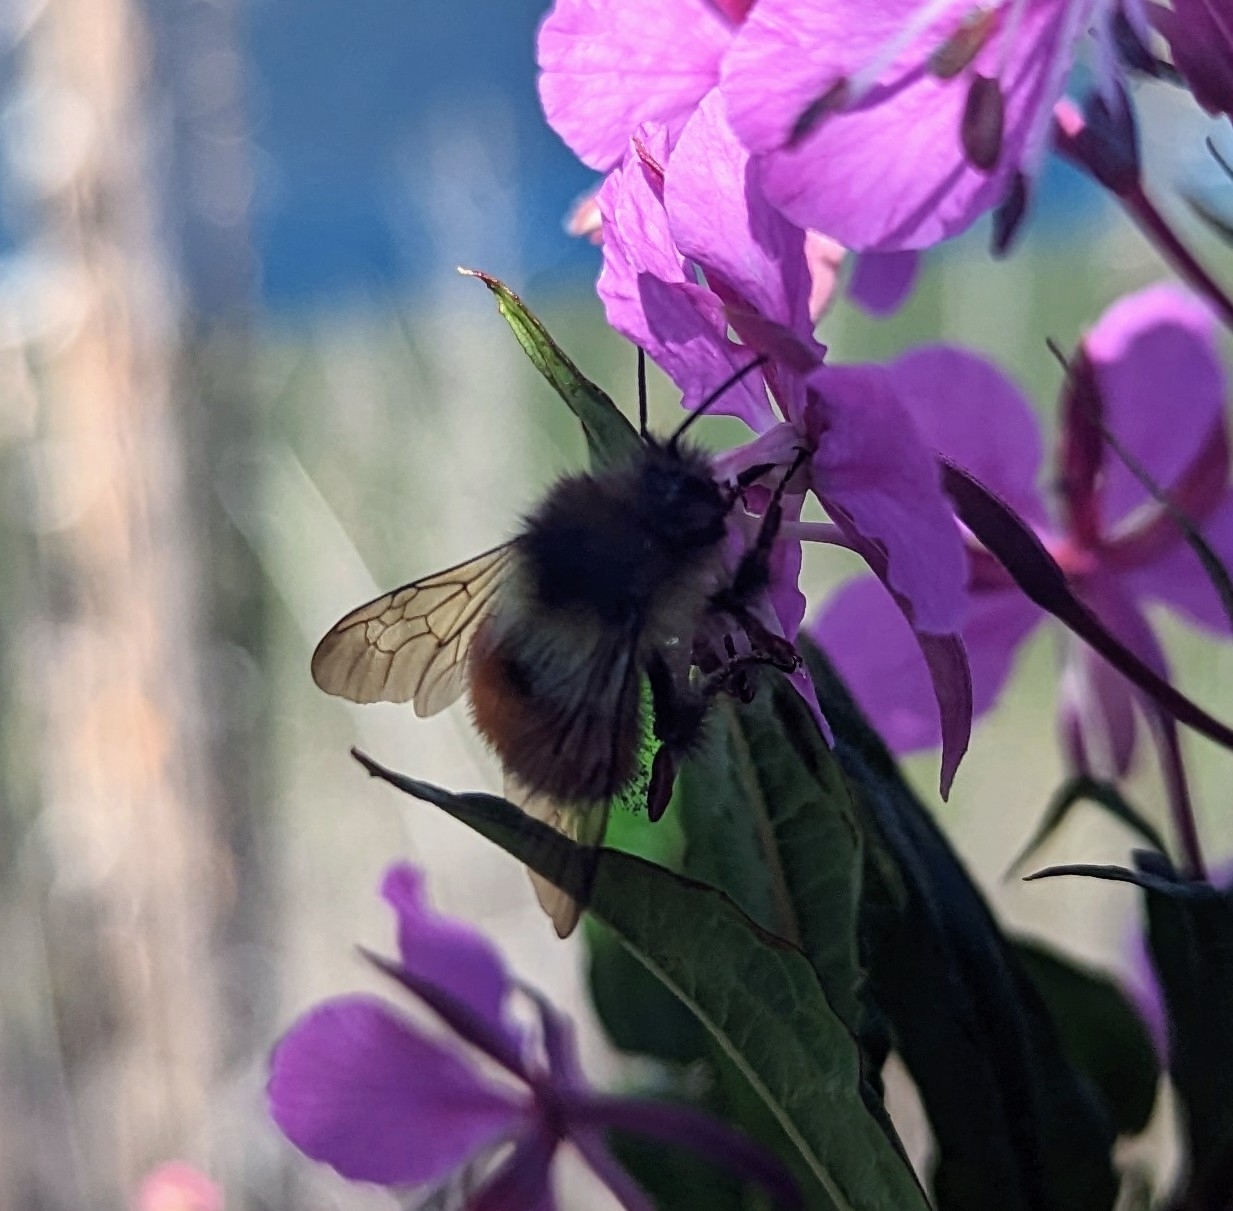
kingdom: Animalia
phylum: Arthropoda
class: Insecta
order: Hymenoptera
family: Apidae
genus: Bombus
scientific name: Bombus melanopygus
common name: Black tail bumble bee
